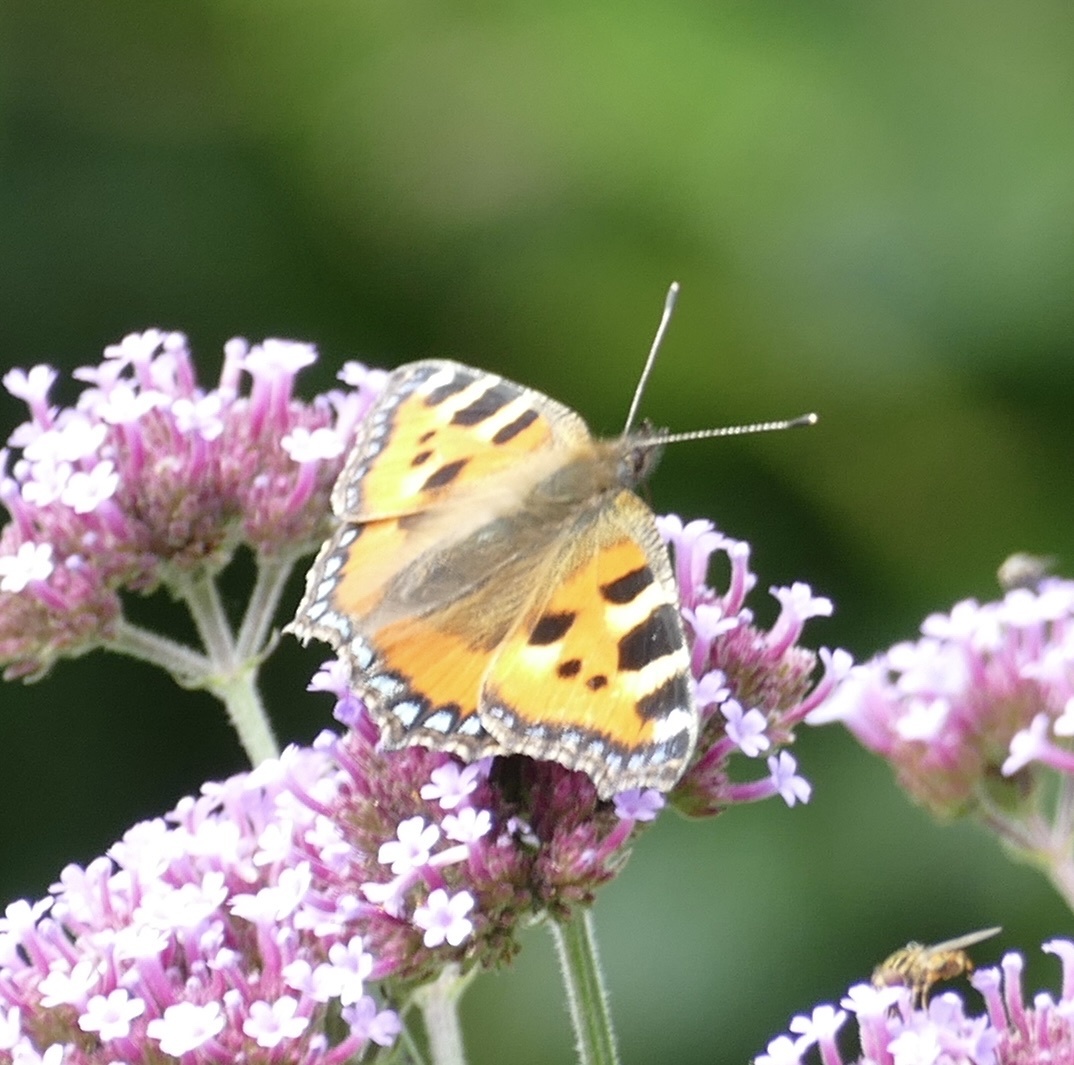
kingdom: Animalia
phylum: Arthropoda
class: Insecta
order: Lepidoptera
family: Nymphalidae
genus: Aglais
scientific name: Aglais urticae
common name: Small tortoiseshell
